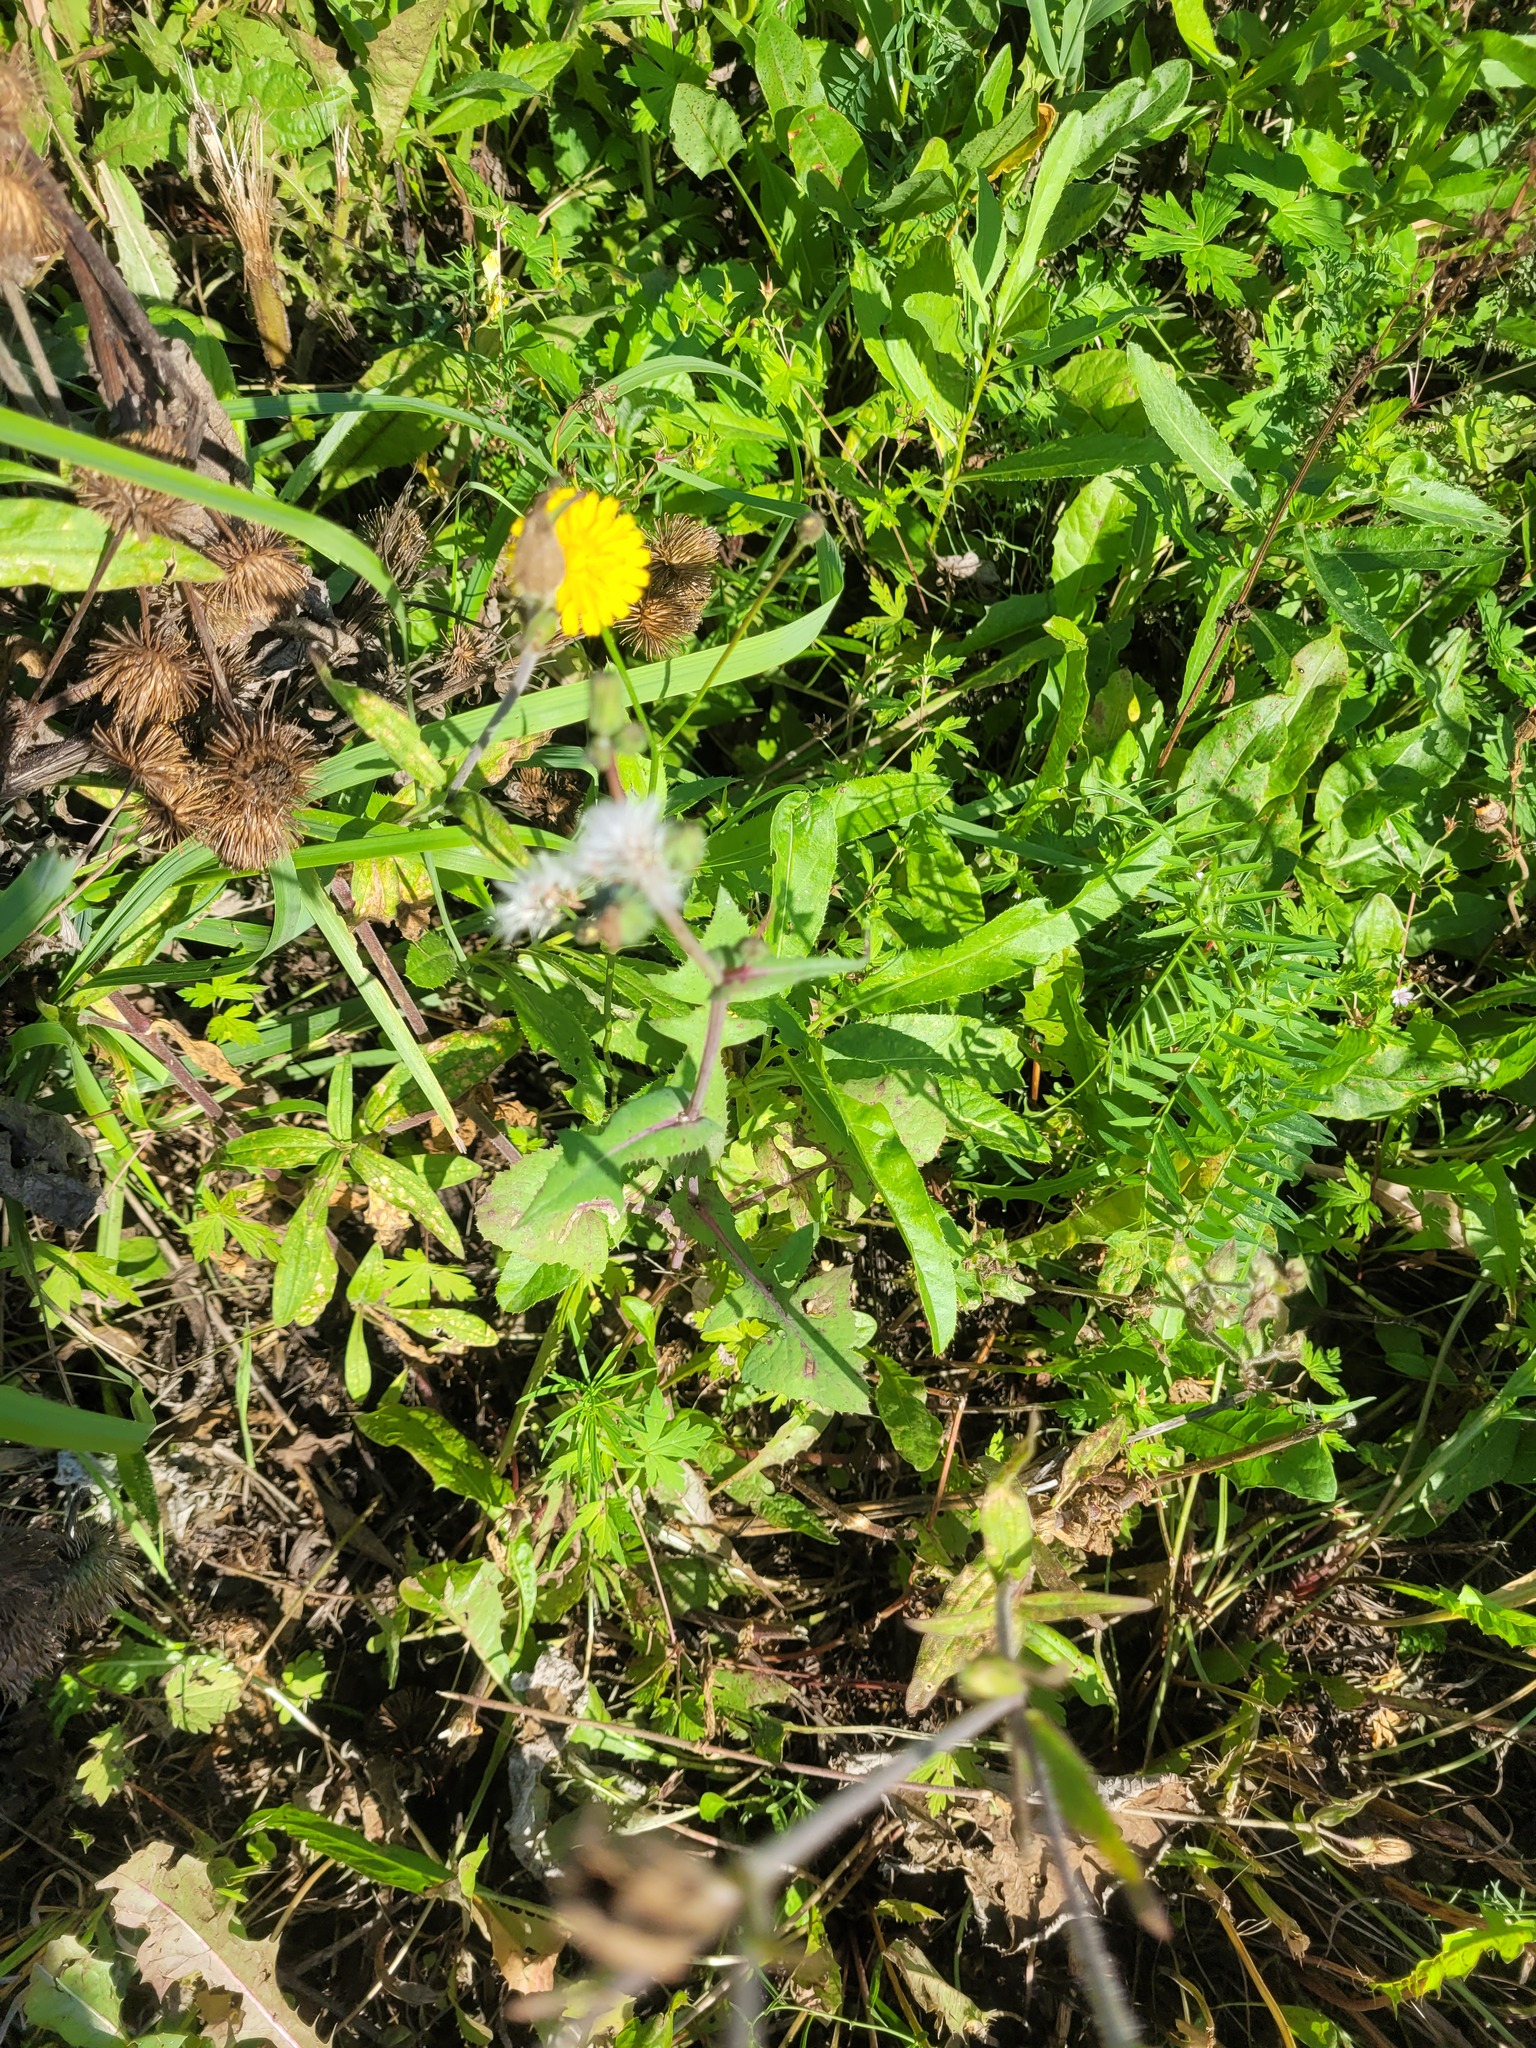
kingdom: Plantae
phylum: Tracheophyta
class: Magnoliopsida
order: Asterales
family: Asteraceae
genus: Sonchus
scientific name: Sonchus oleraceus
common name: Common sowthistle
